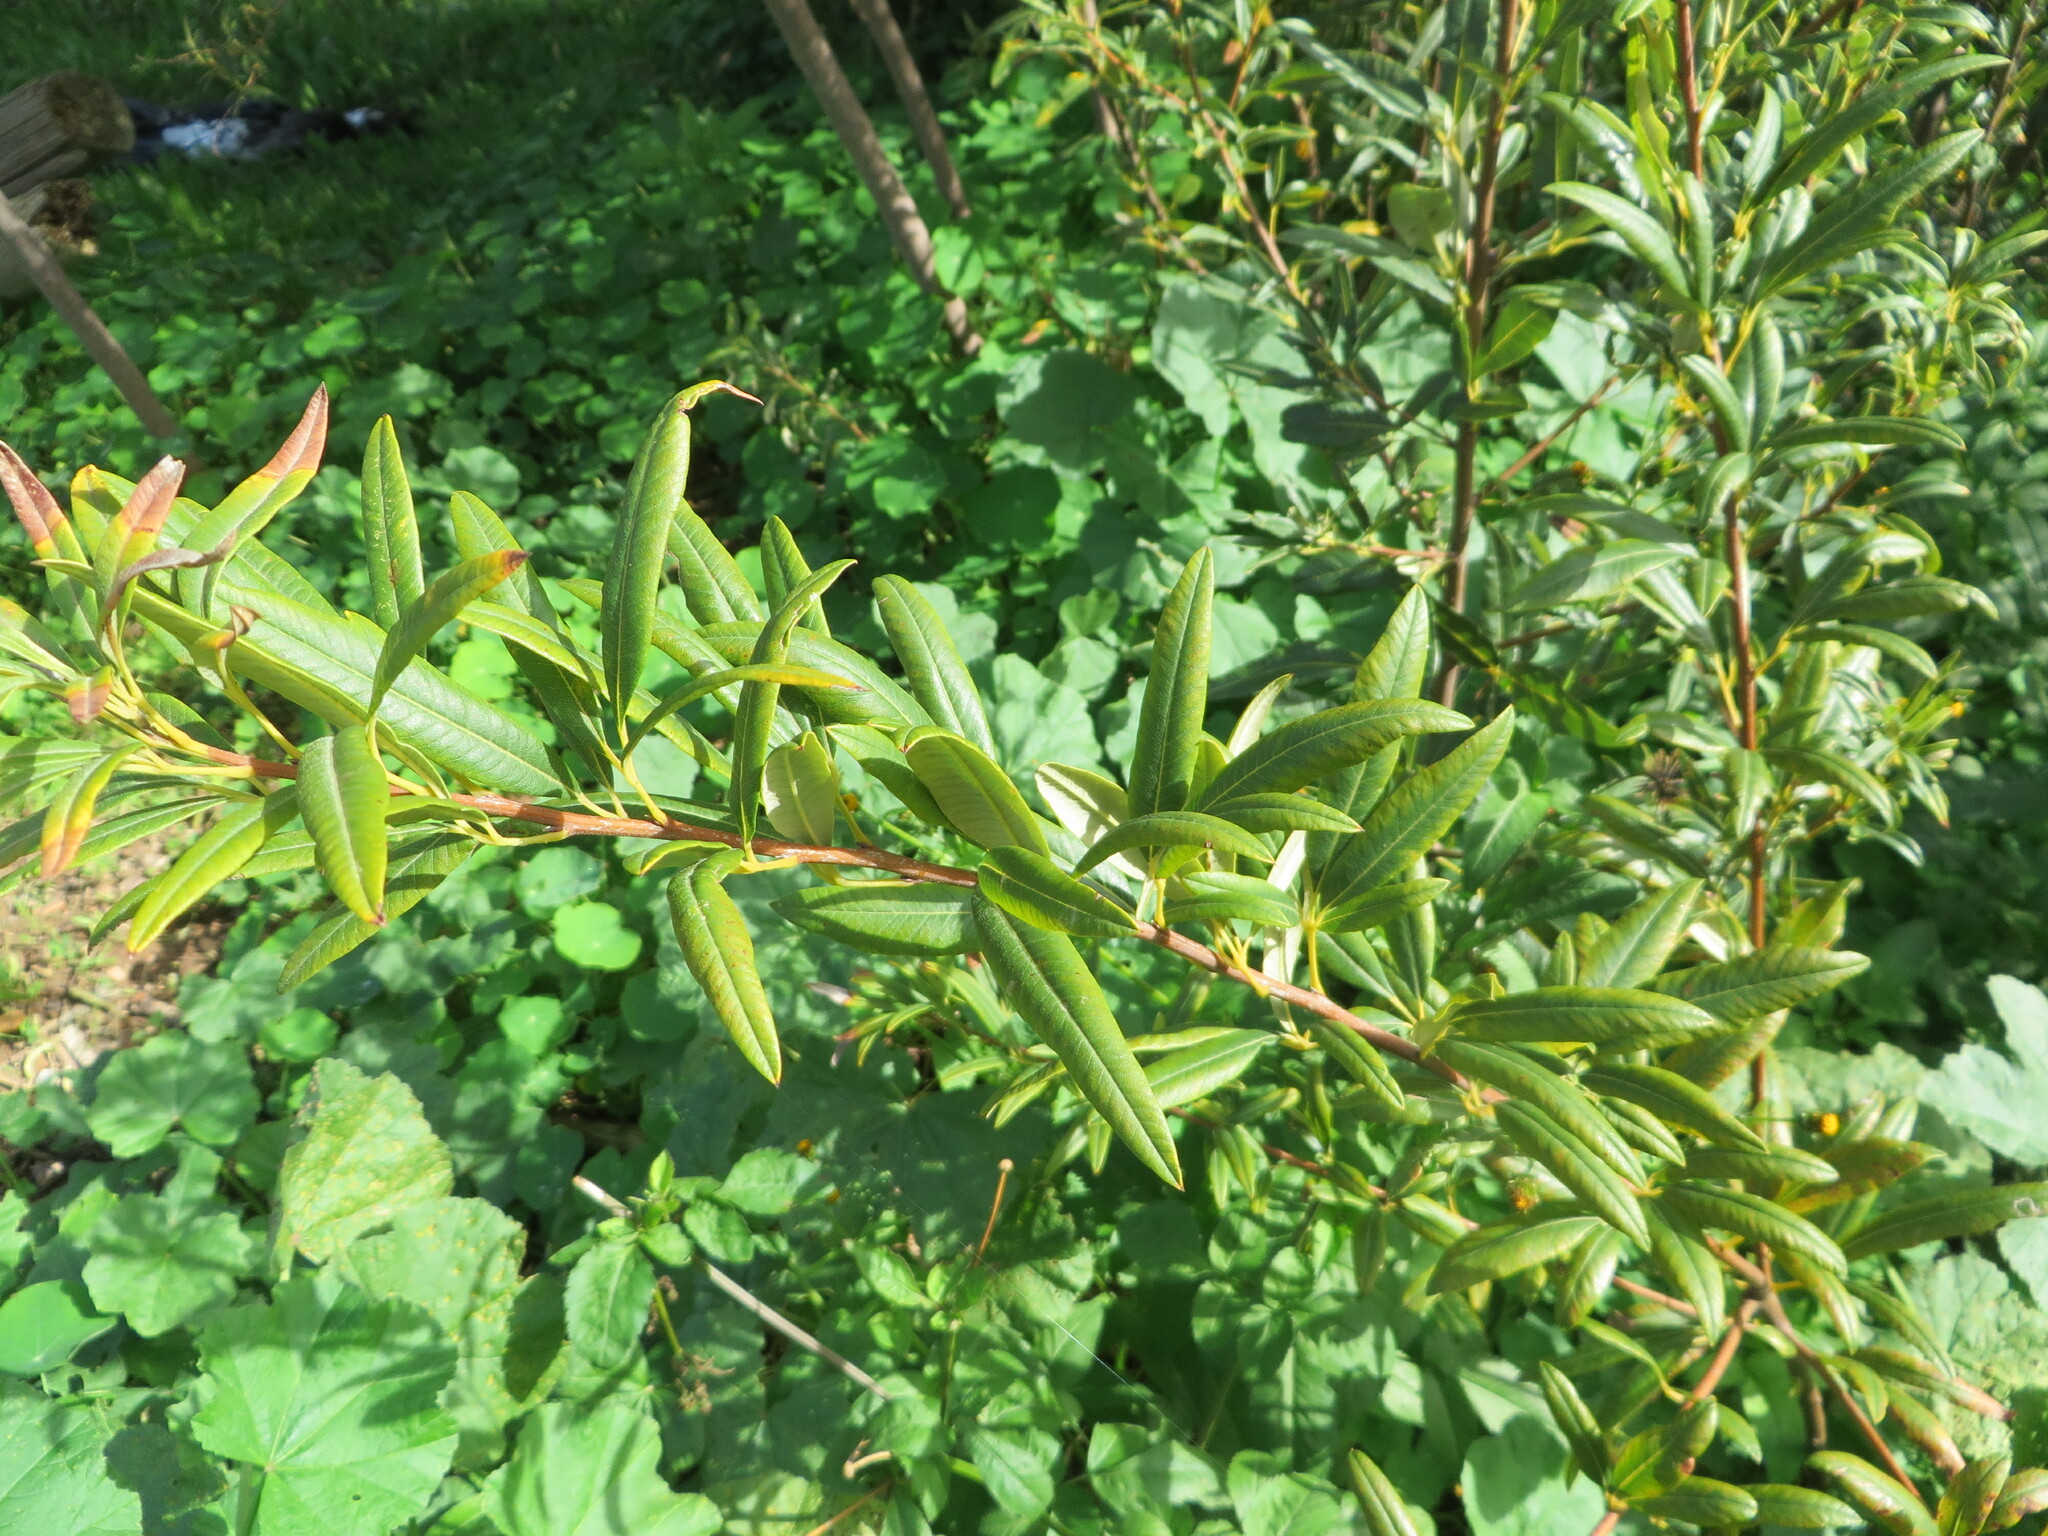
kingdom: Plantae
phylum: Tracheophyta
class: Magnoliopsida
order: Sapindales
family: Anacardiaceae
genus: Searsia
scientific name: Searsia angustifolia
